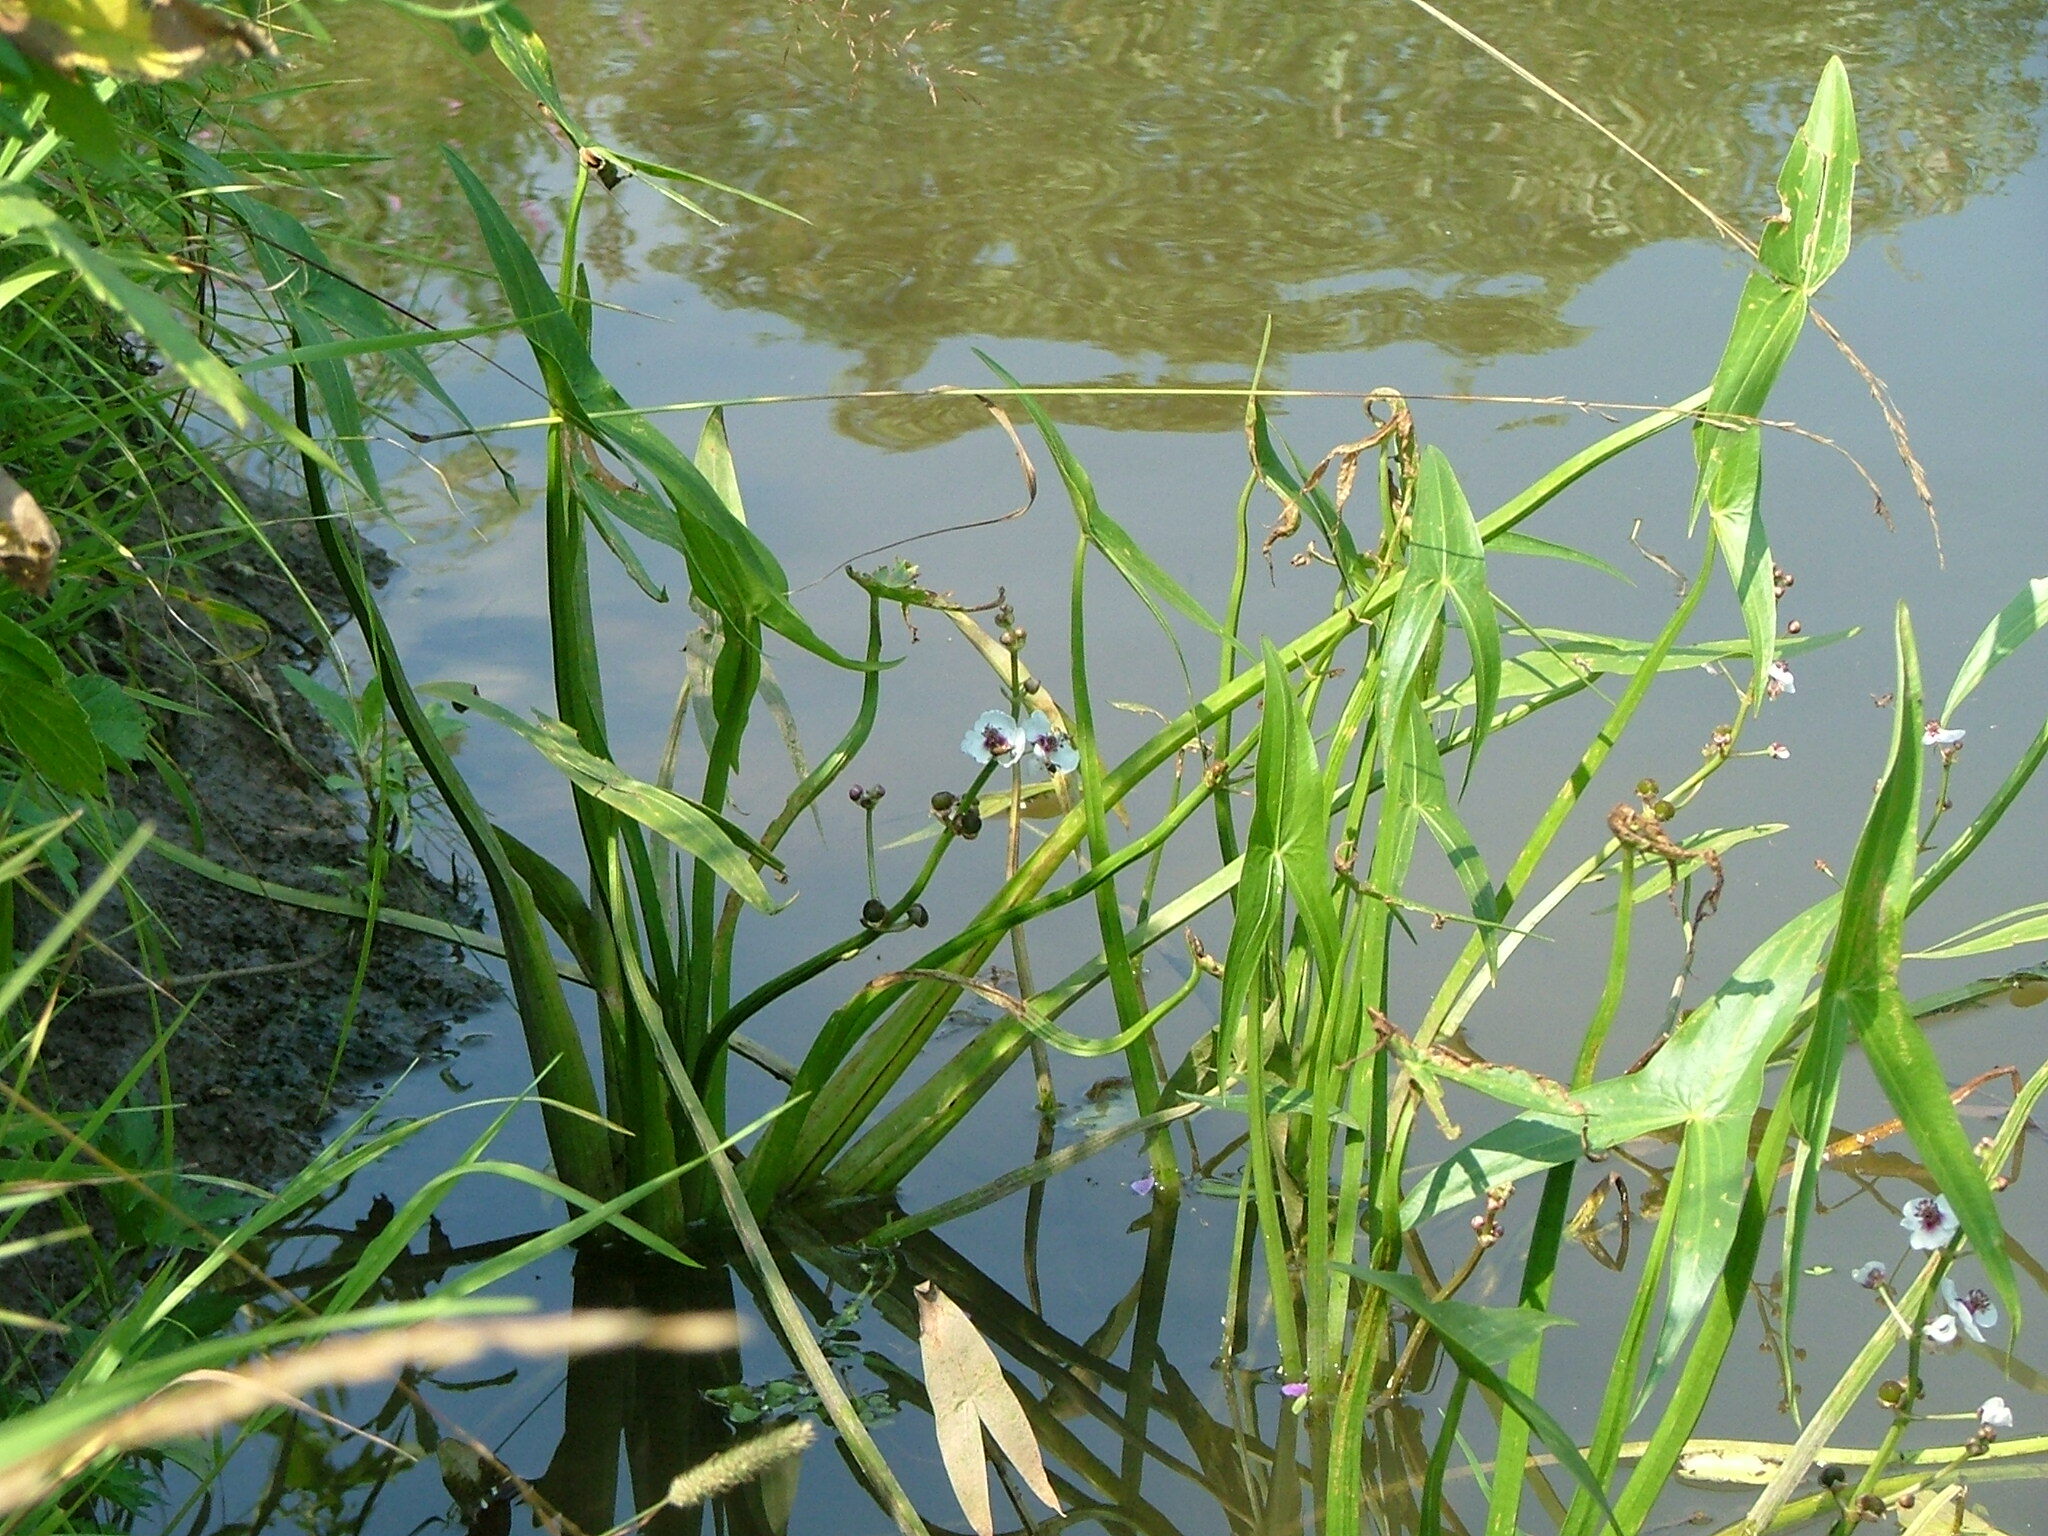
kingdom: Plantae
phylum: Tracheophyta
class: Liliopsida
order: Alismatales
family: Alismataceae
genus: Sagittaria
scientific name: Sagittaria sagittifolia
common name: Arrowhead
